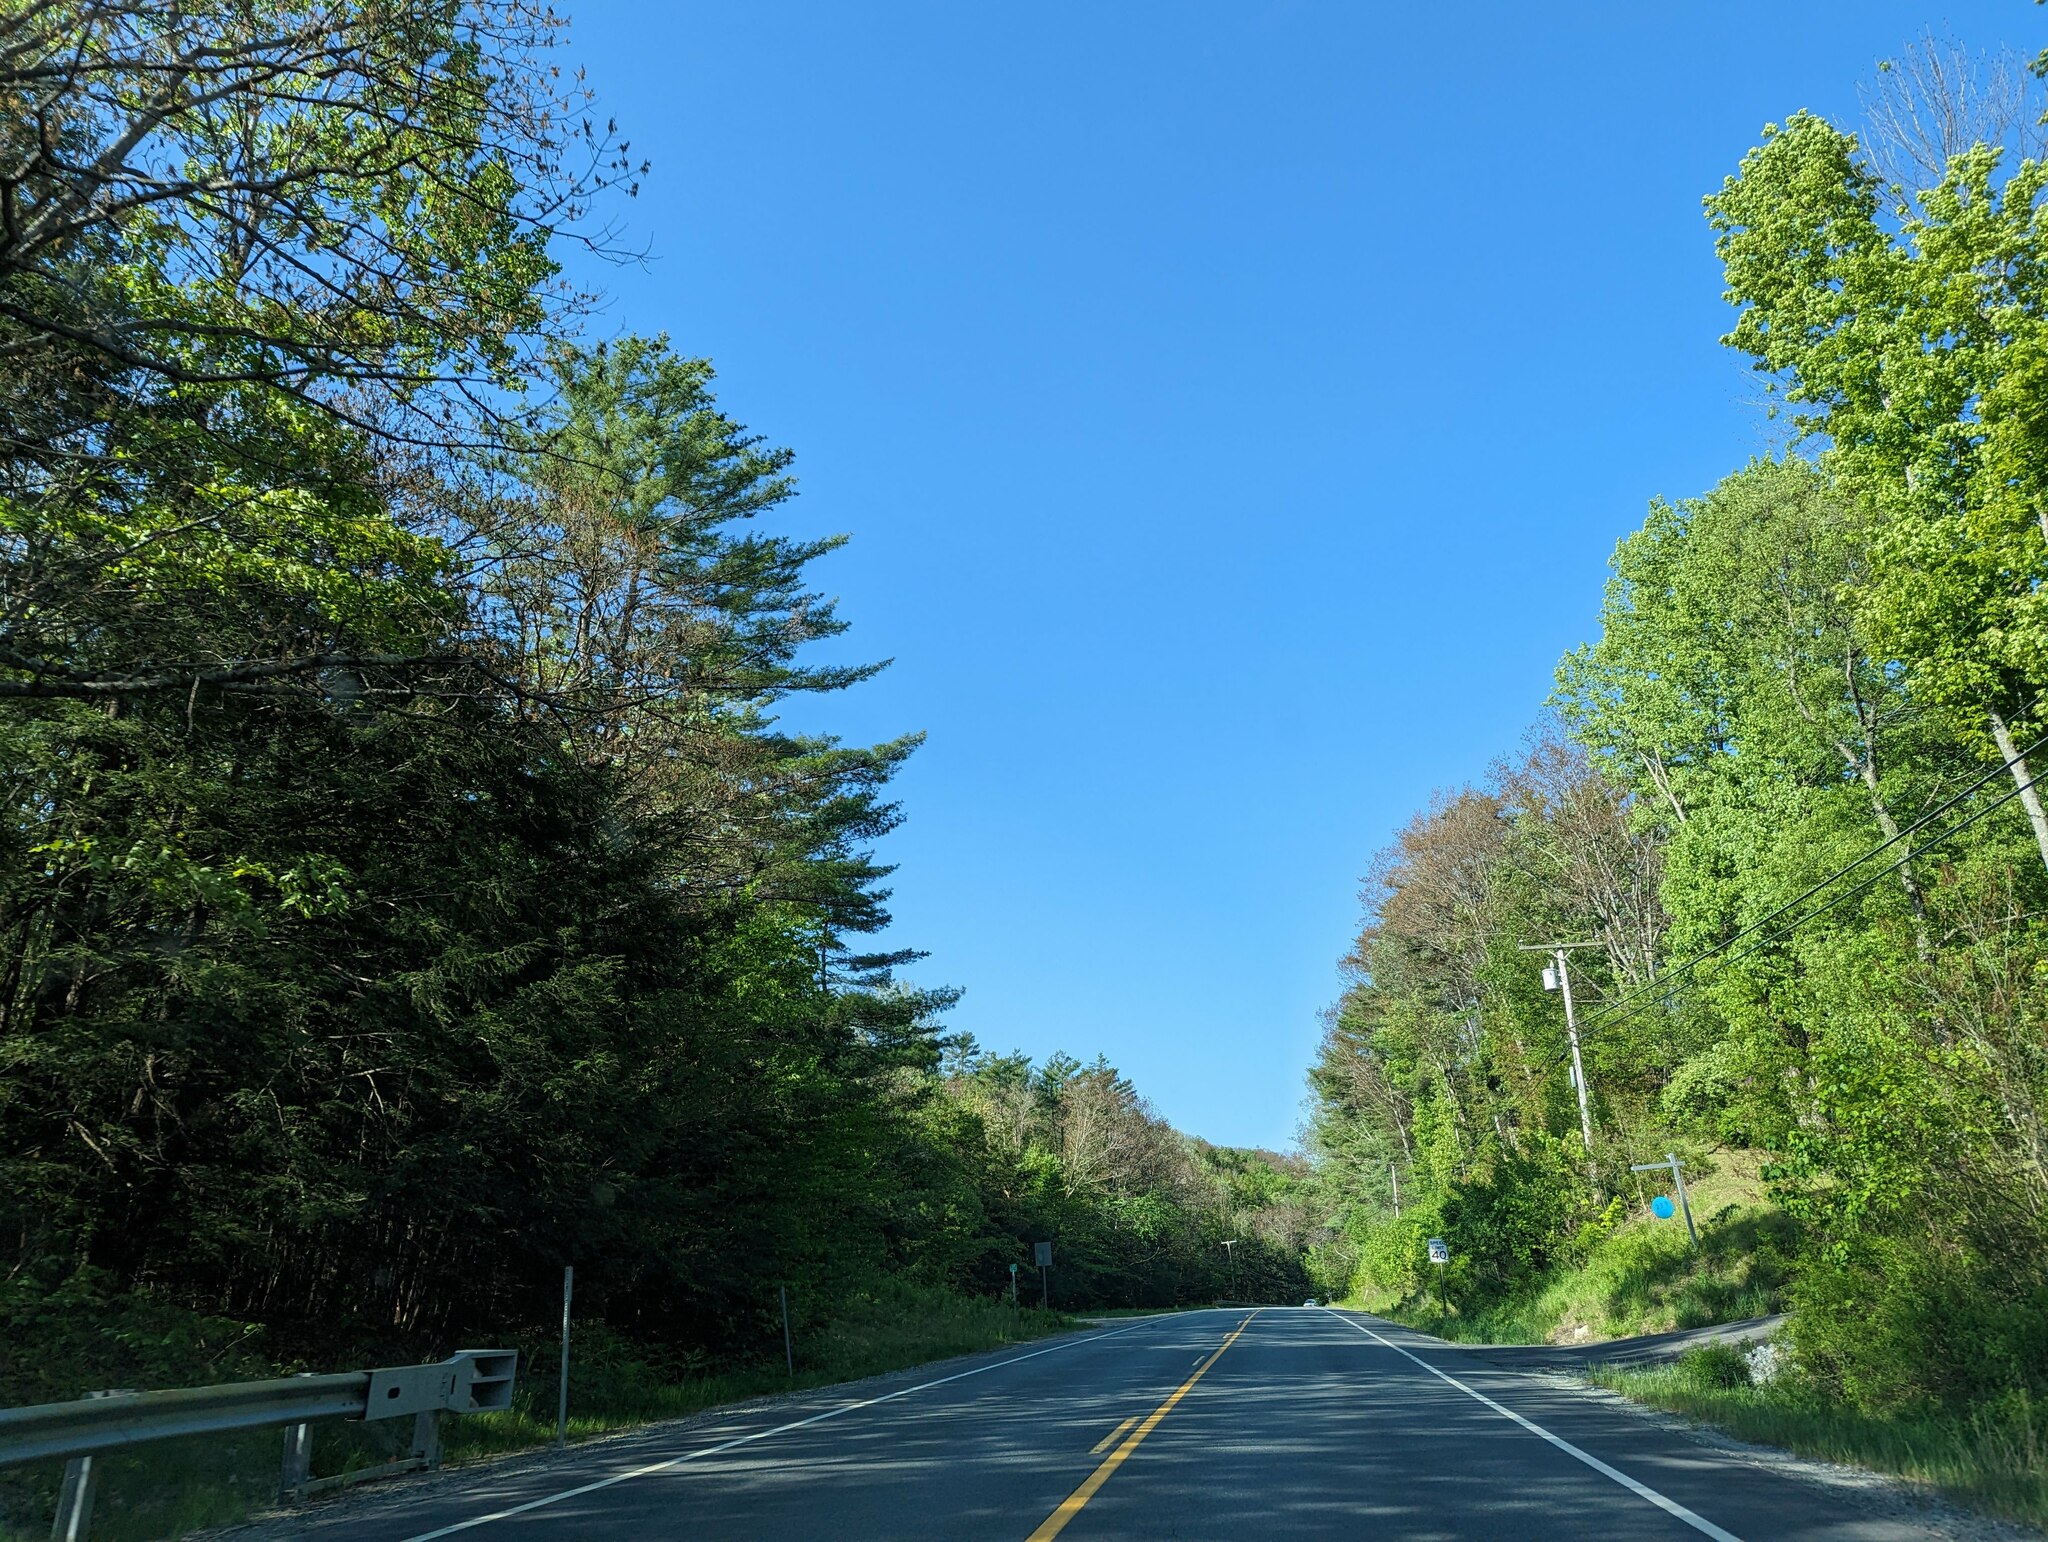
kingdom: Plantae
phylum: Tracheophyta
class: Pinopsida
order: Pinales
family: Pinaceae
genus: Pinus
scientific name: Pinus strobus
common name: Weymouth pine
